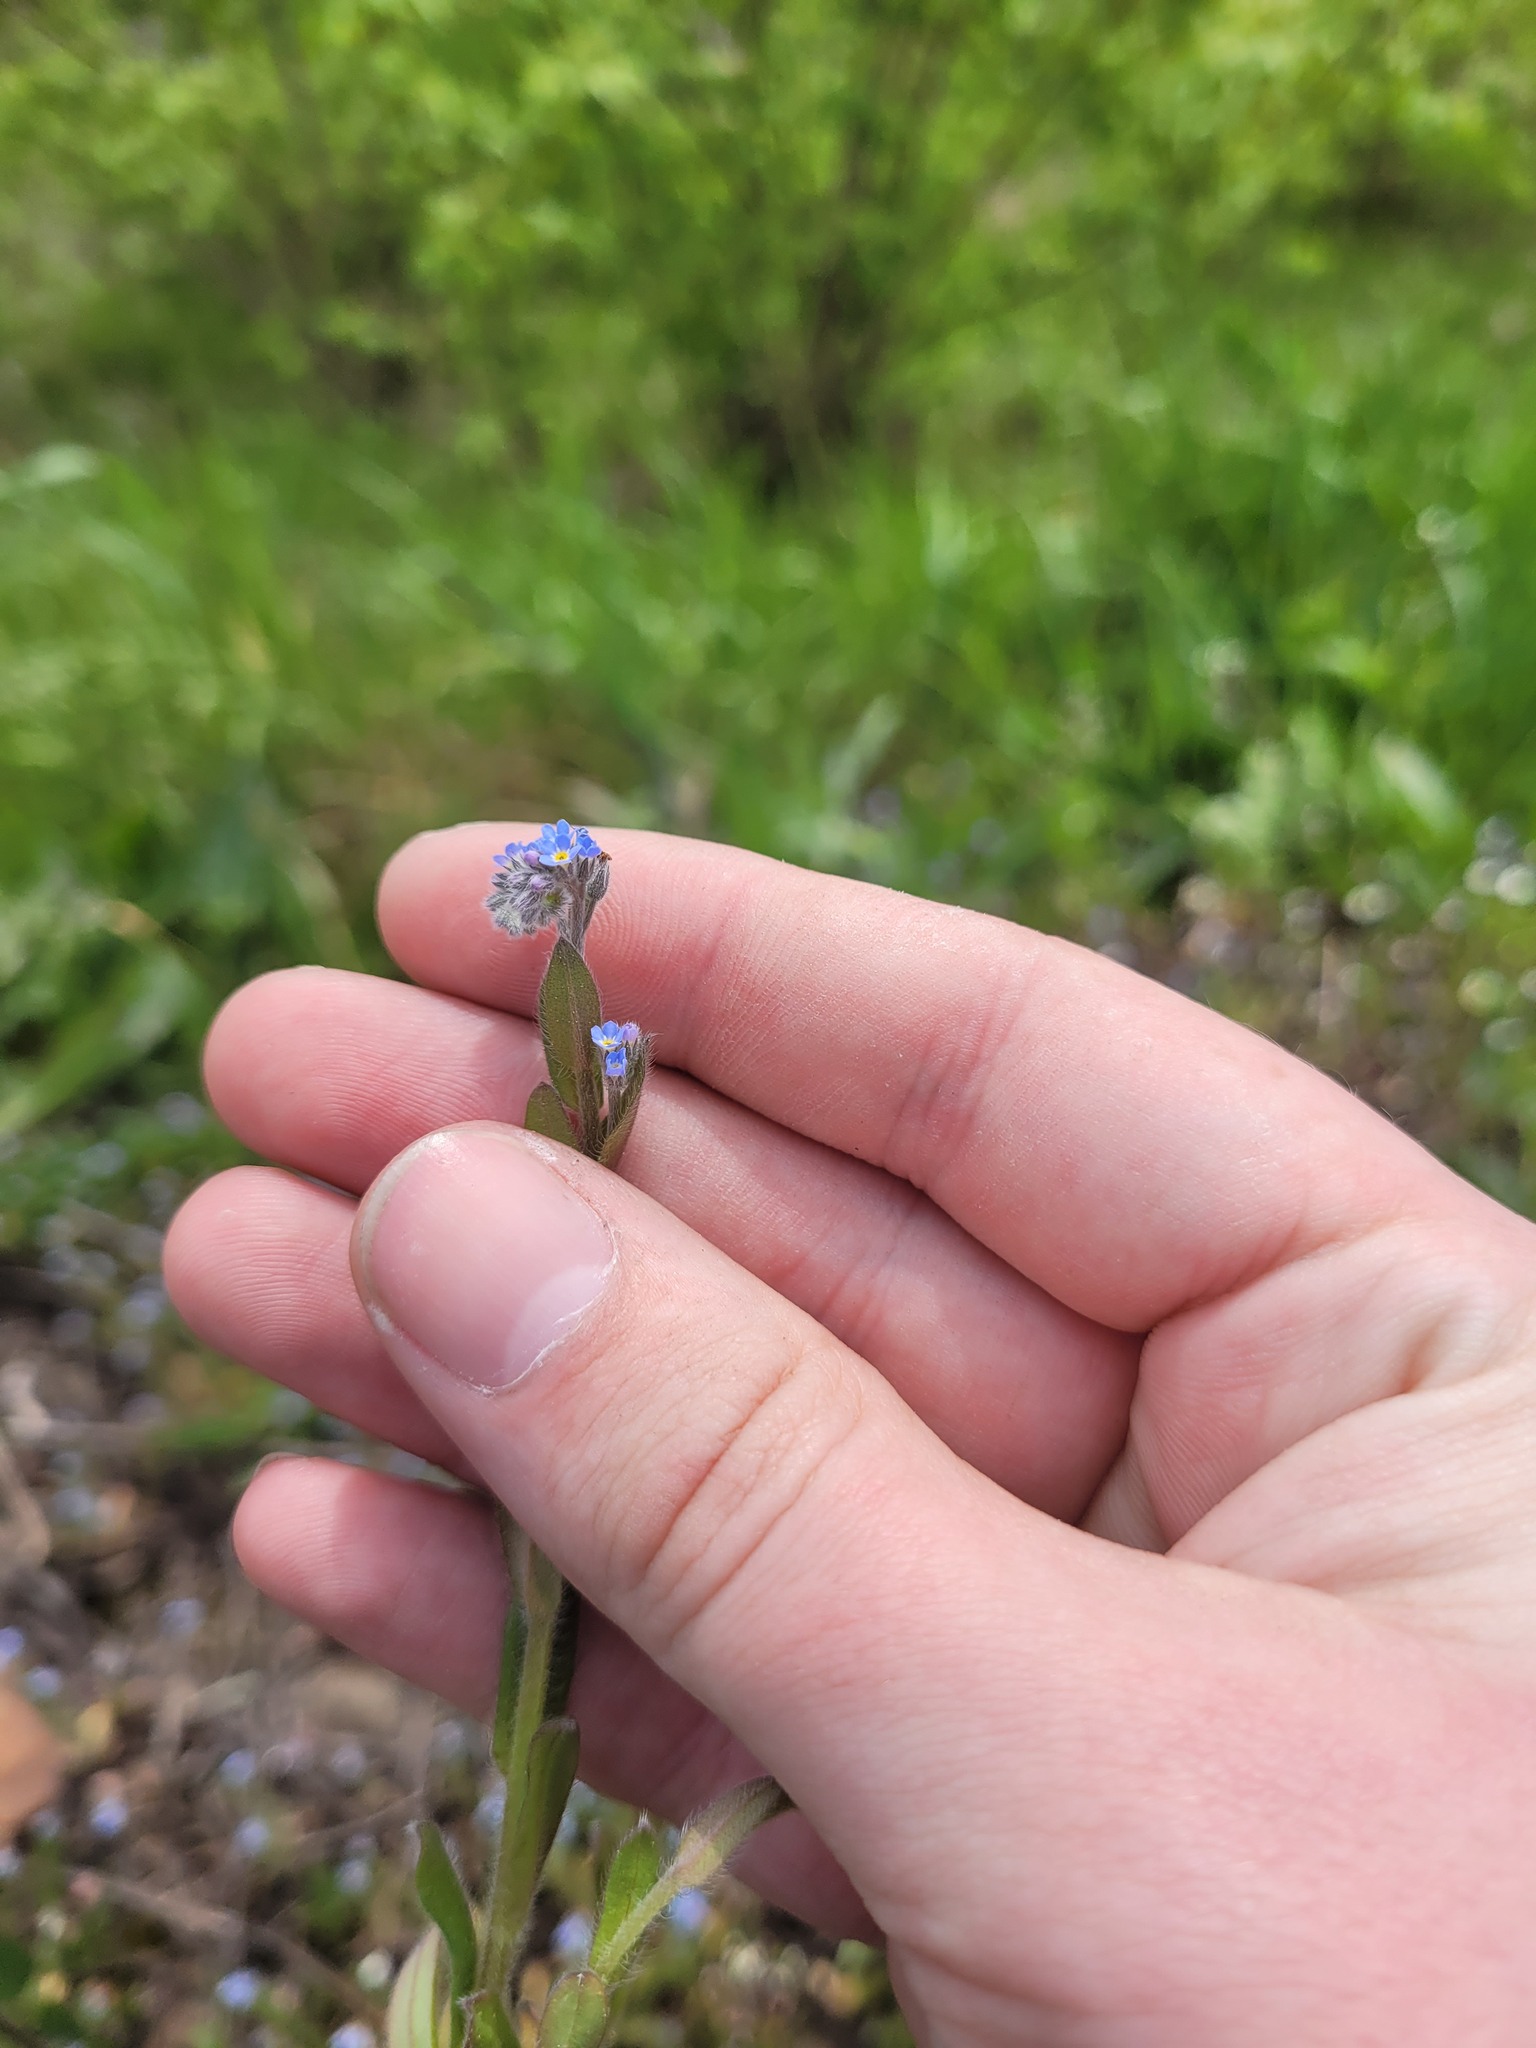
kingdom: Plantae
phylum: Tracheophyta
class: Magnoliopsida
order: Boraginales
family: Boraginaceae
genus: Myosotis
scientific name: Myosotis arvensis
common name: Field forget-me-not
